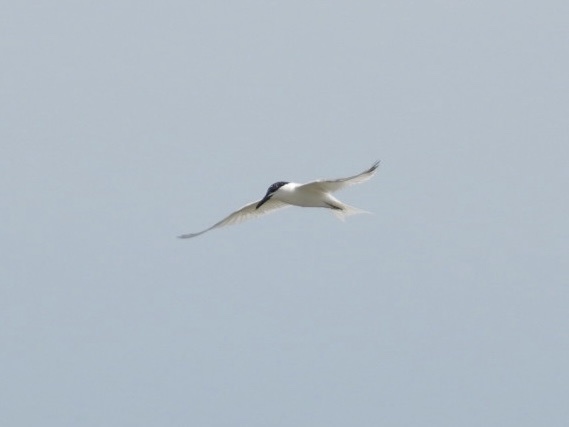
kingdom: Animalia
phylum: Chordata
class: Aves
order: Charadriiformes
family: Laridae
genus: Gelochelidon
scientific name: Gelochelidon nilotica
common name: Gull-billed tern
